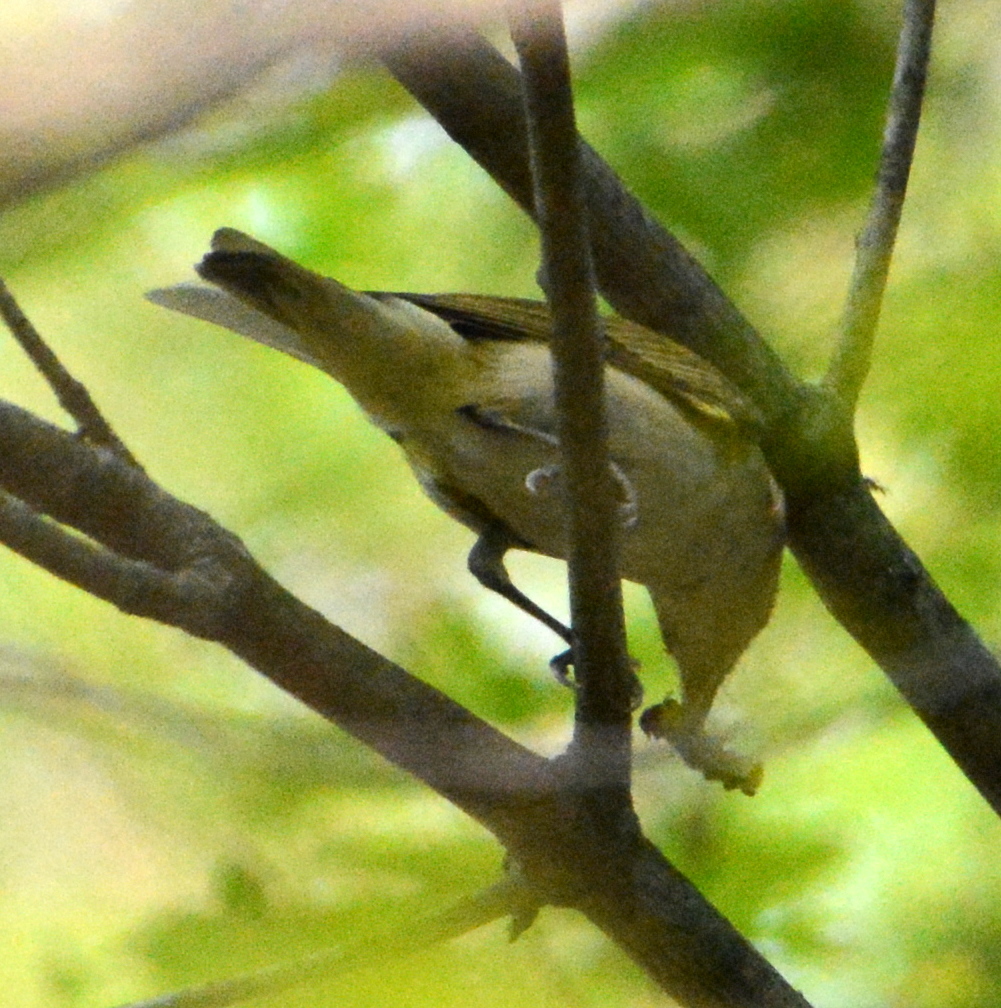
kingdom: Animalia
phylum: Chordata
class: Aves
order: Passeriformes
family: Vireonidae
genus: Vireo
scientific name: Vireo olivaceus
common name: Red-eyed vireo
